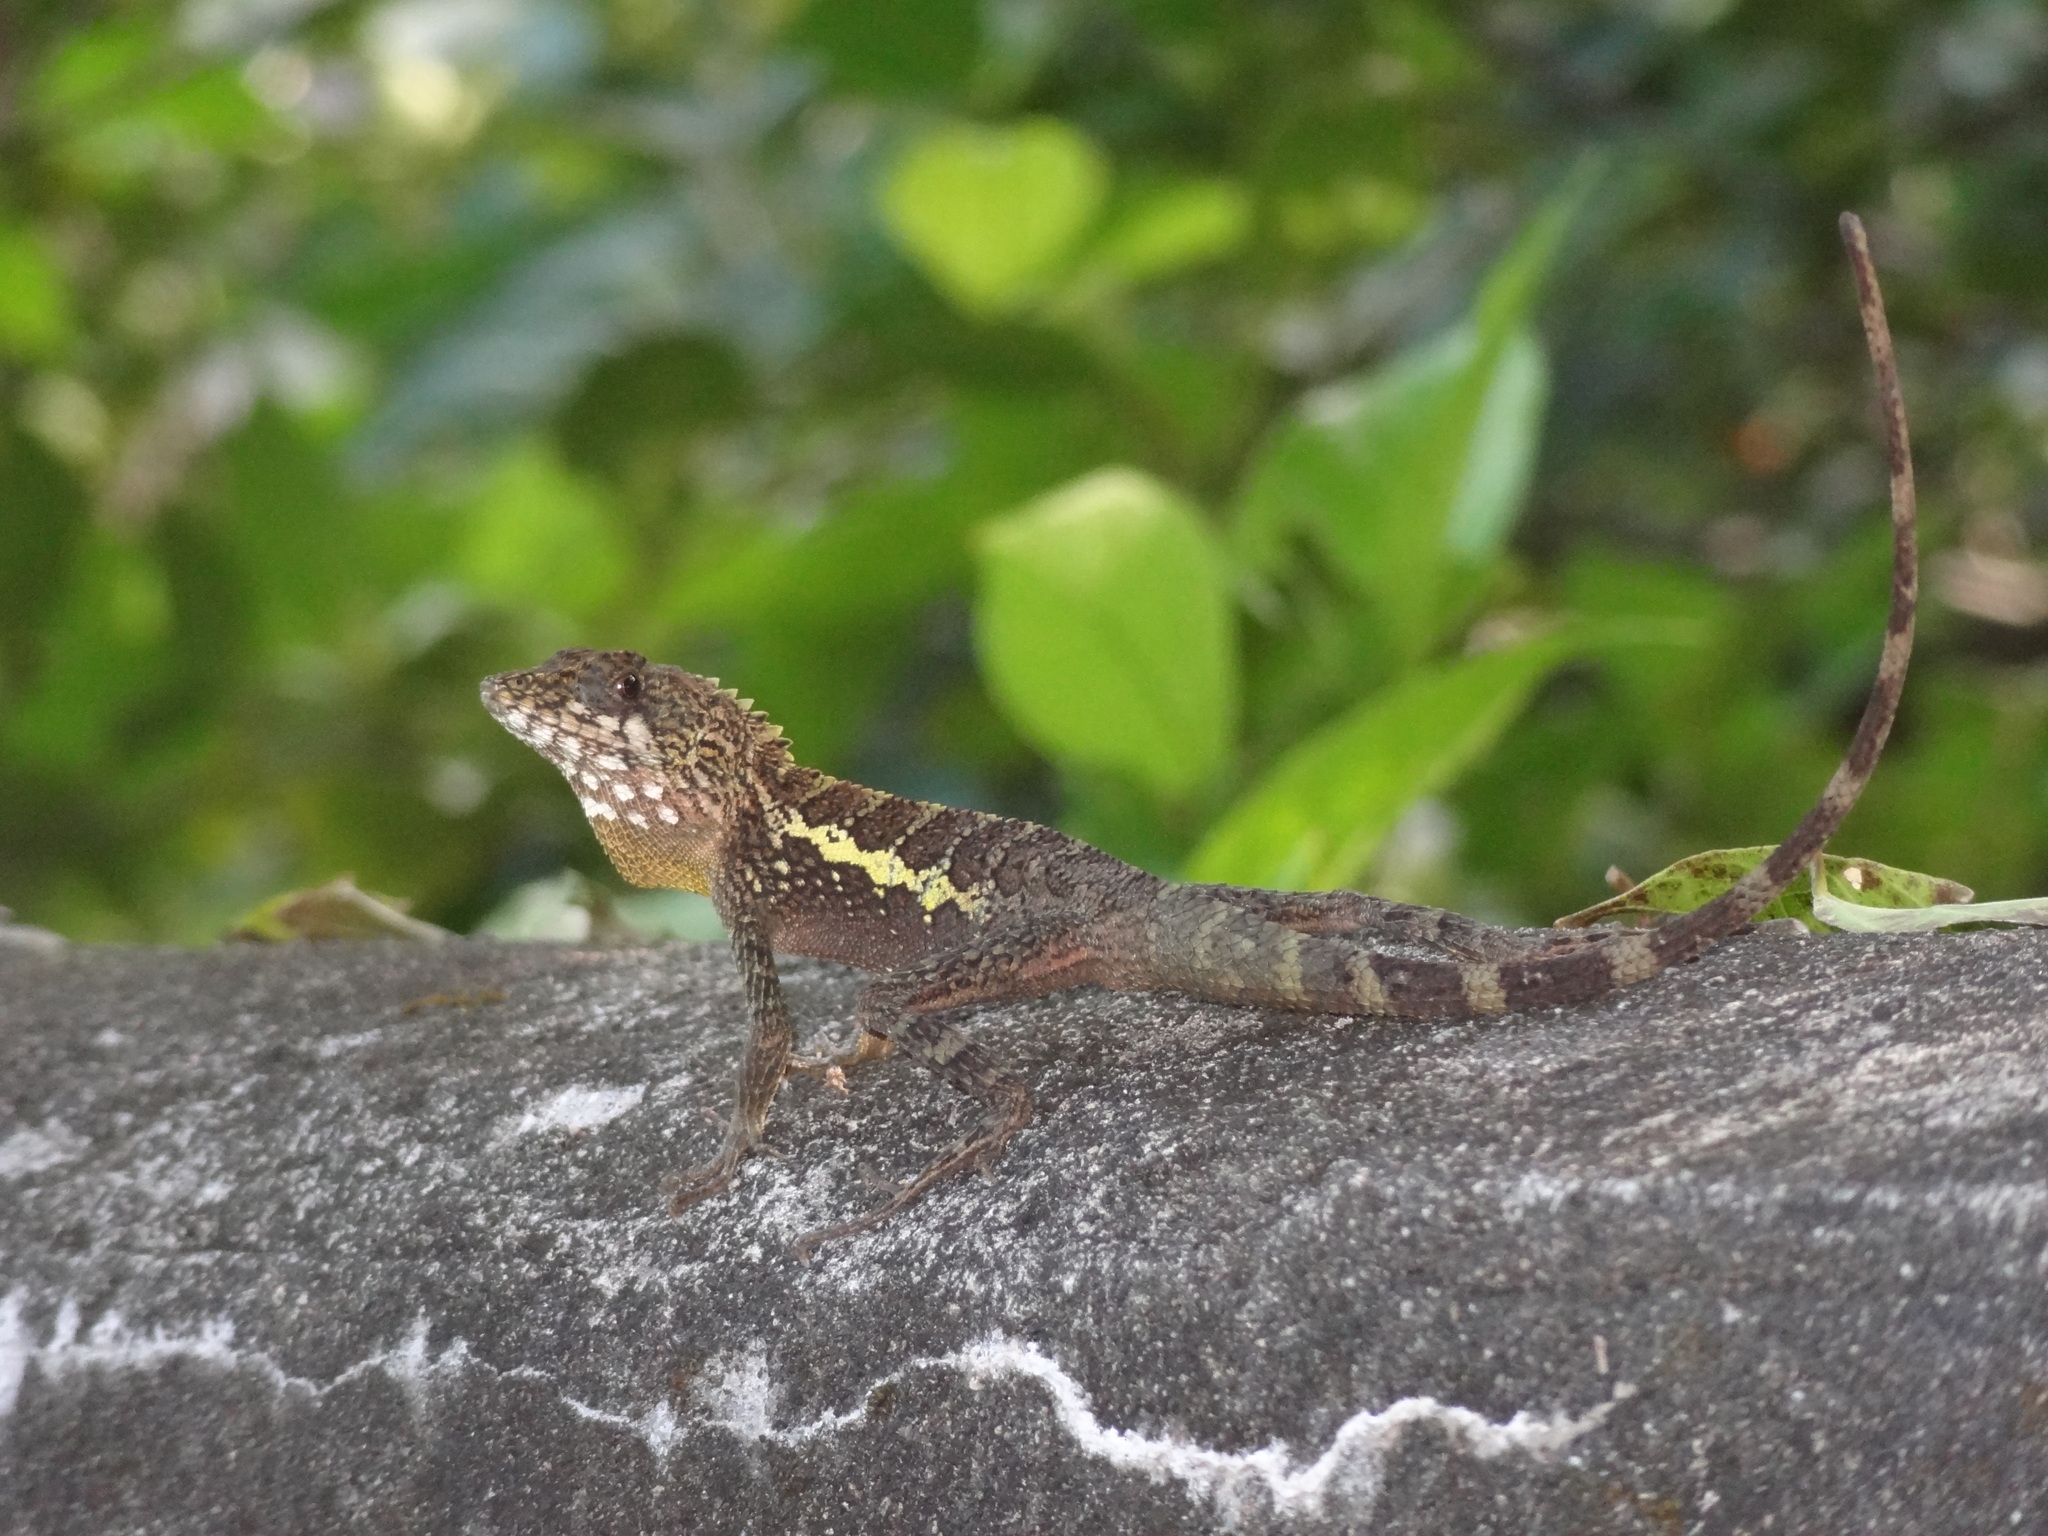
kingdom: Animalia
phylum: Chordata
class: Squamata
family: Agamidae
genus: Diploderma
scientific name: Diploderma swinhonis
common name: Taiwan japalure
